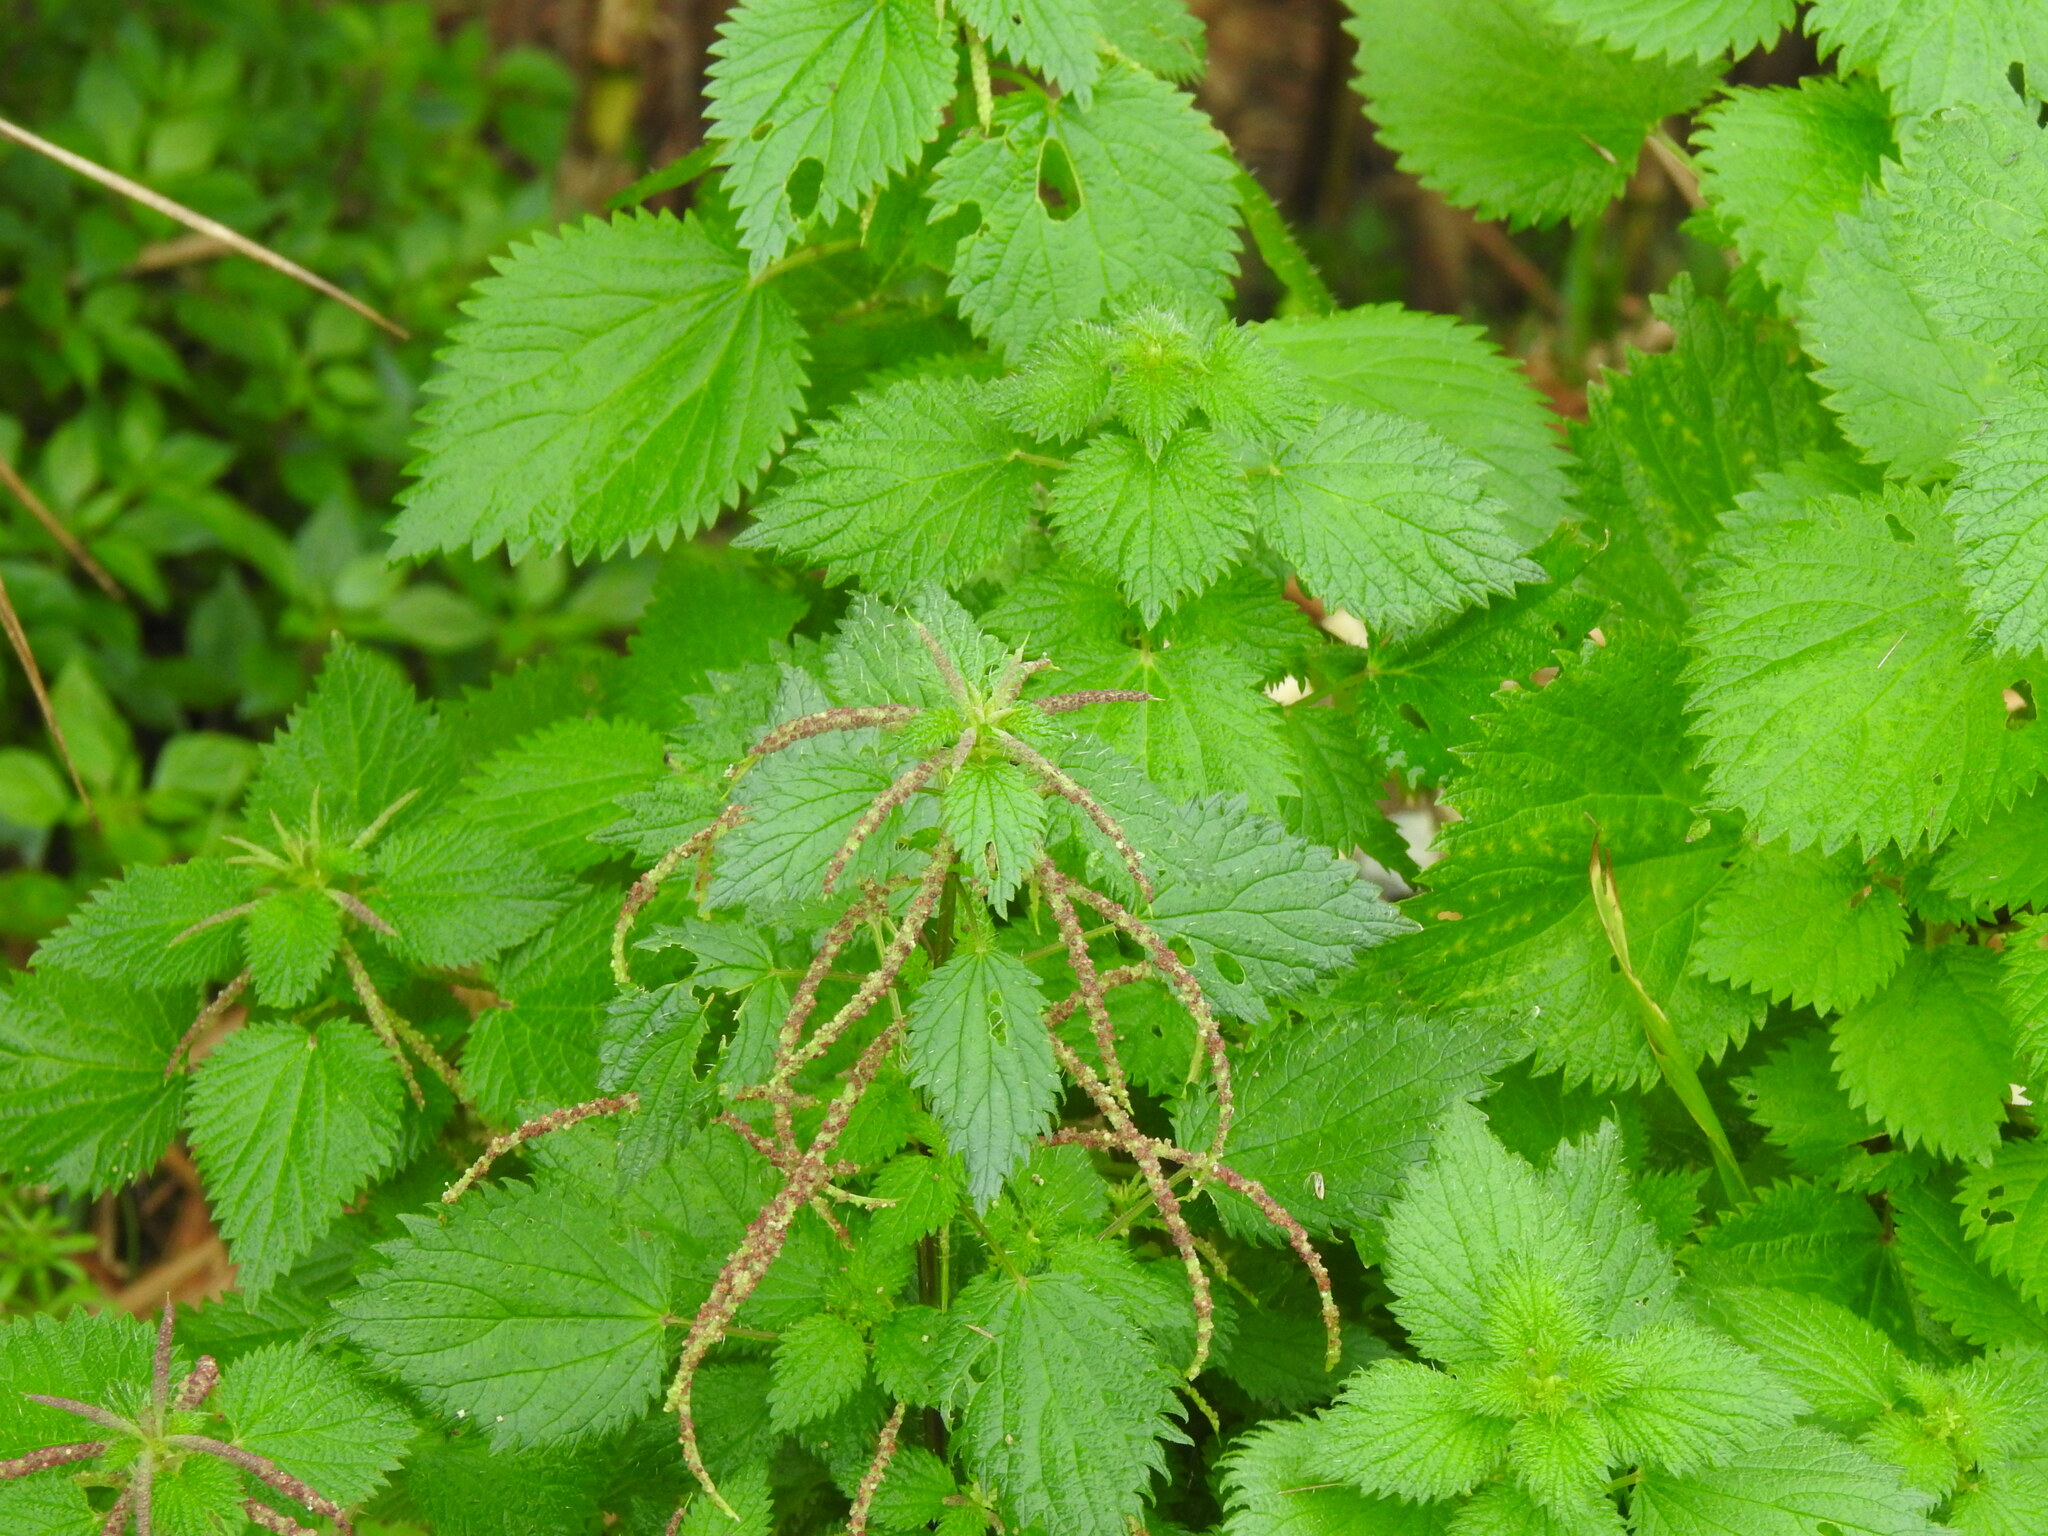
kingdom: Plantae
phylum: Tracheophyta
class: Magnoliopsida
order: Rosales
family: Urticaceae
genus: Urtica
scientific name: Urtica membranacea
